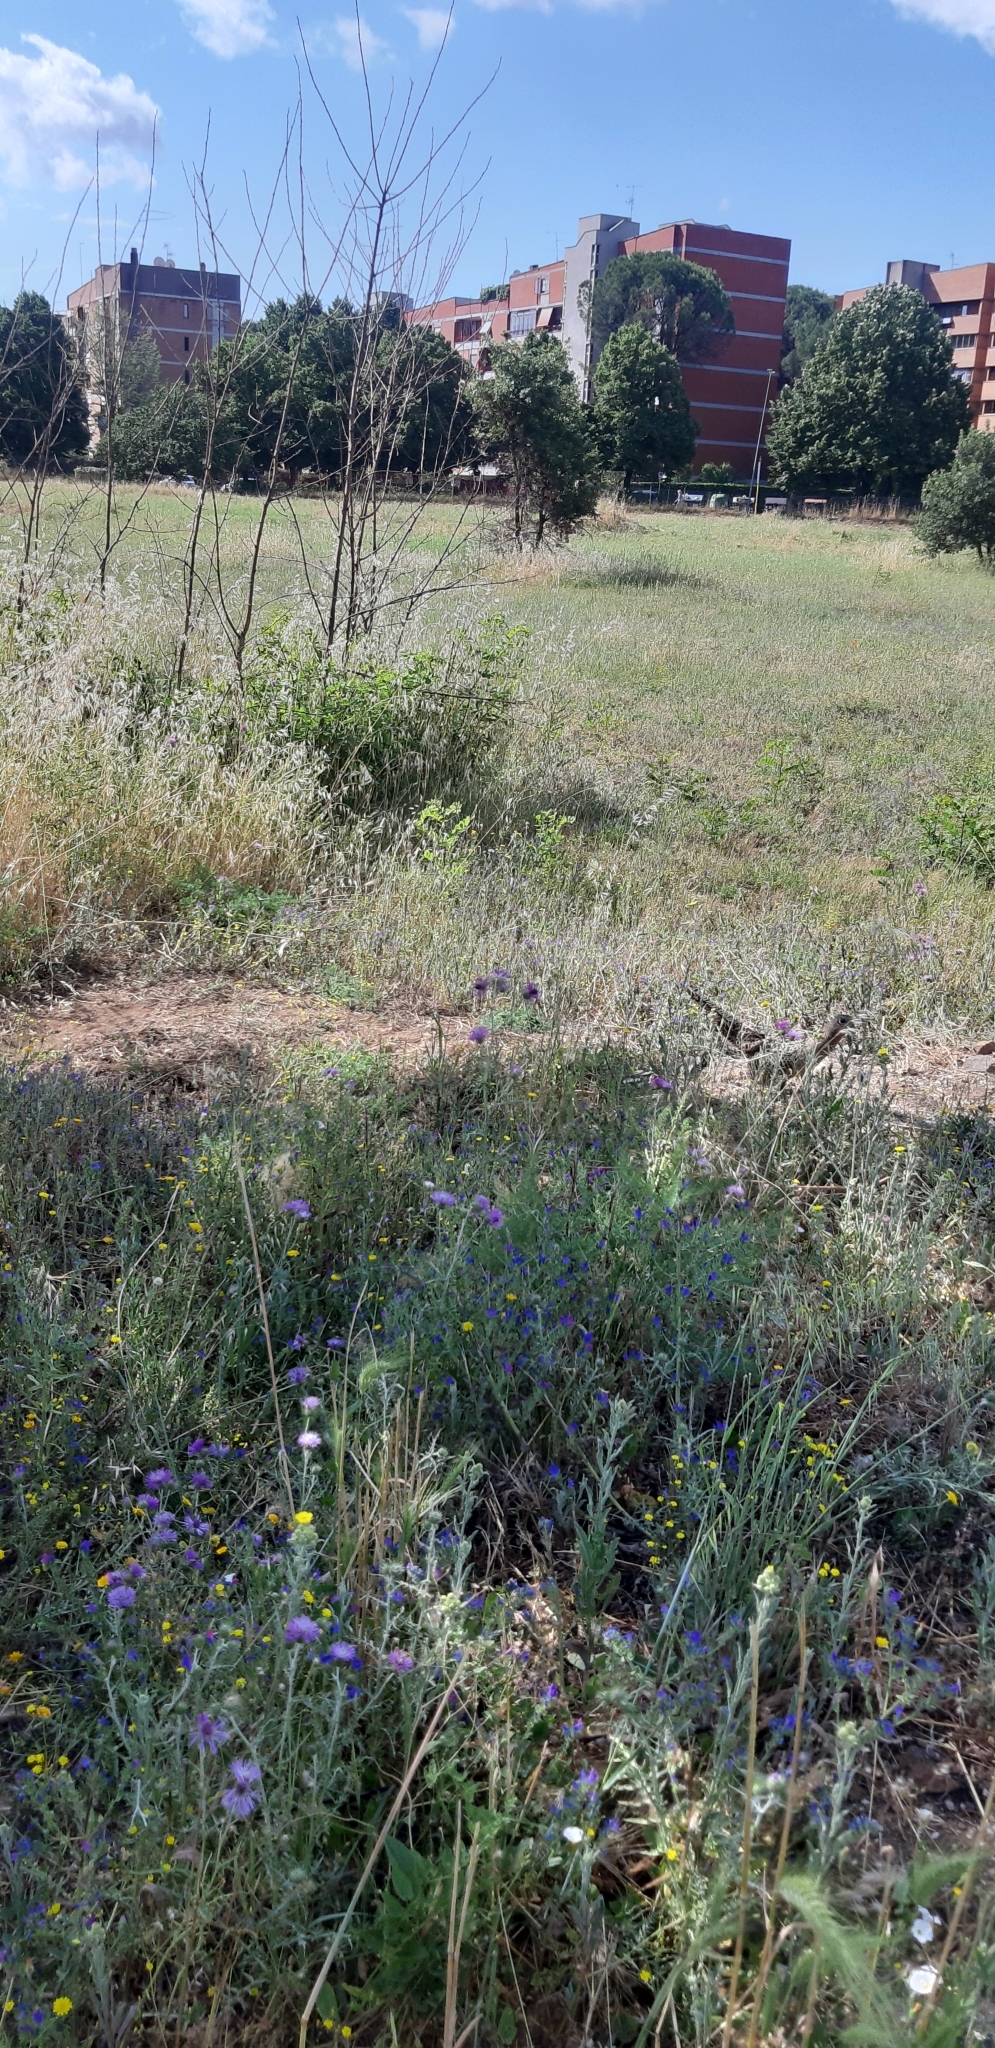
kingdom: Animalia
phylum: Chordata
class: Aves
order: Galliformes
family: Phasianidae
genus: Phasianus
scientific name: Phasianus colchicus
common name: Common pheasant
